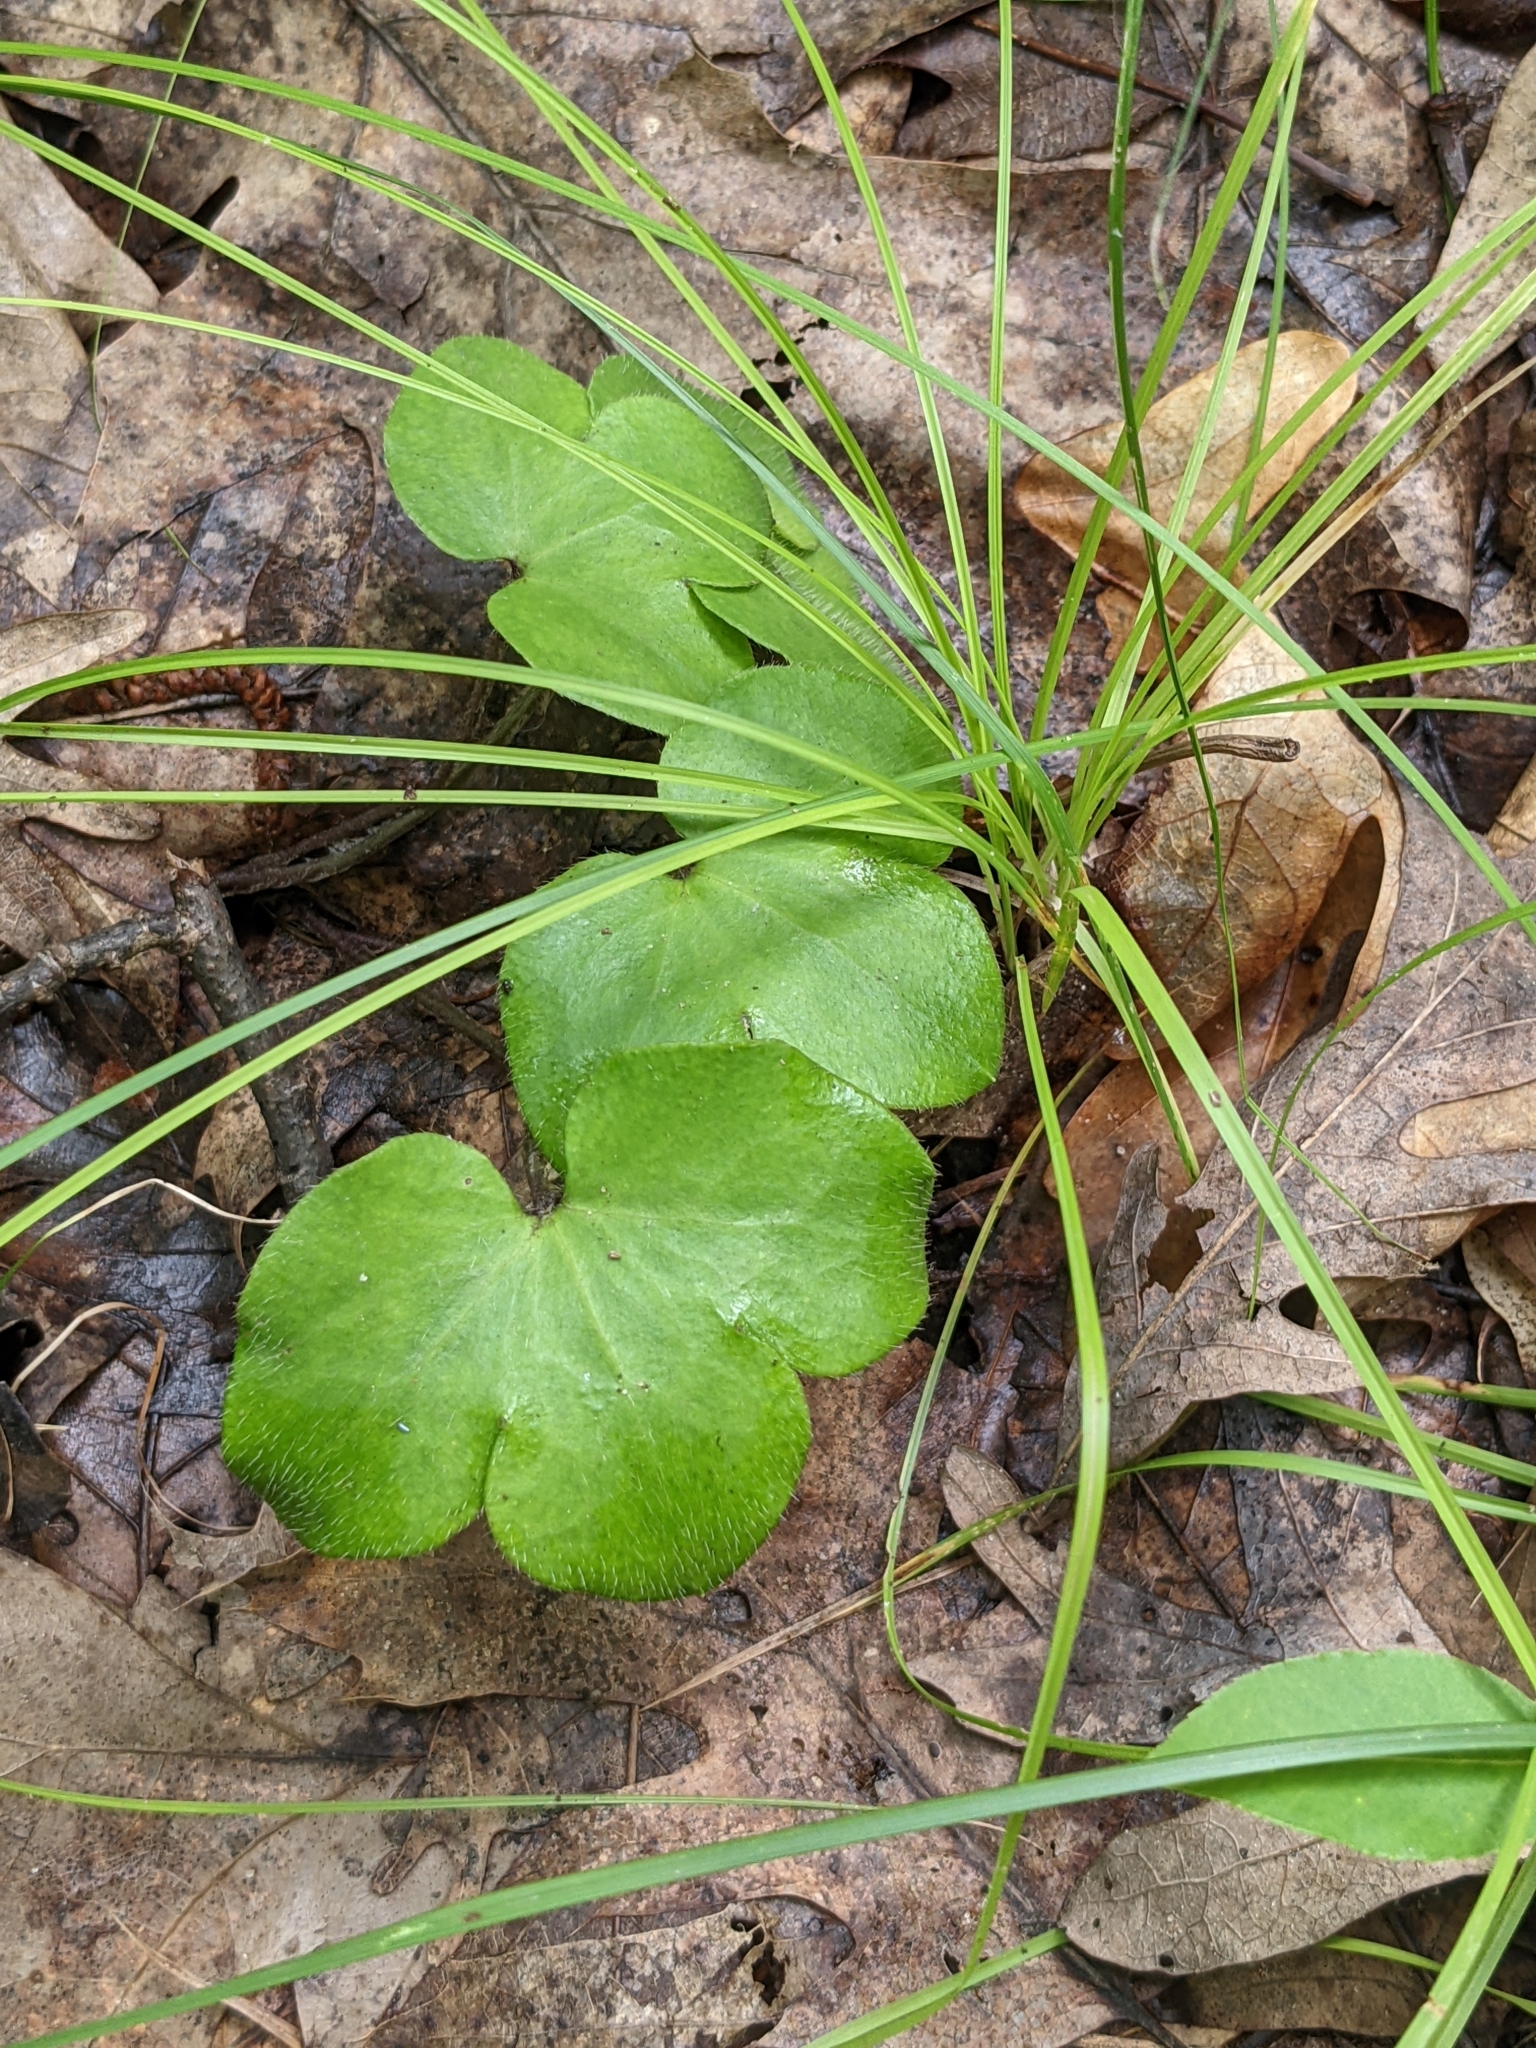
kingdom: Plantae
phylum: Tracheophyta
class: Magnoliopsida
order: Ranunculales
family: Ranunculaceae
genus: Hepatica
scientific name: Hepatica americana
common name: American hepatica
